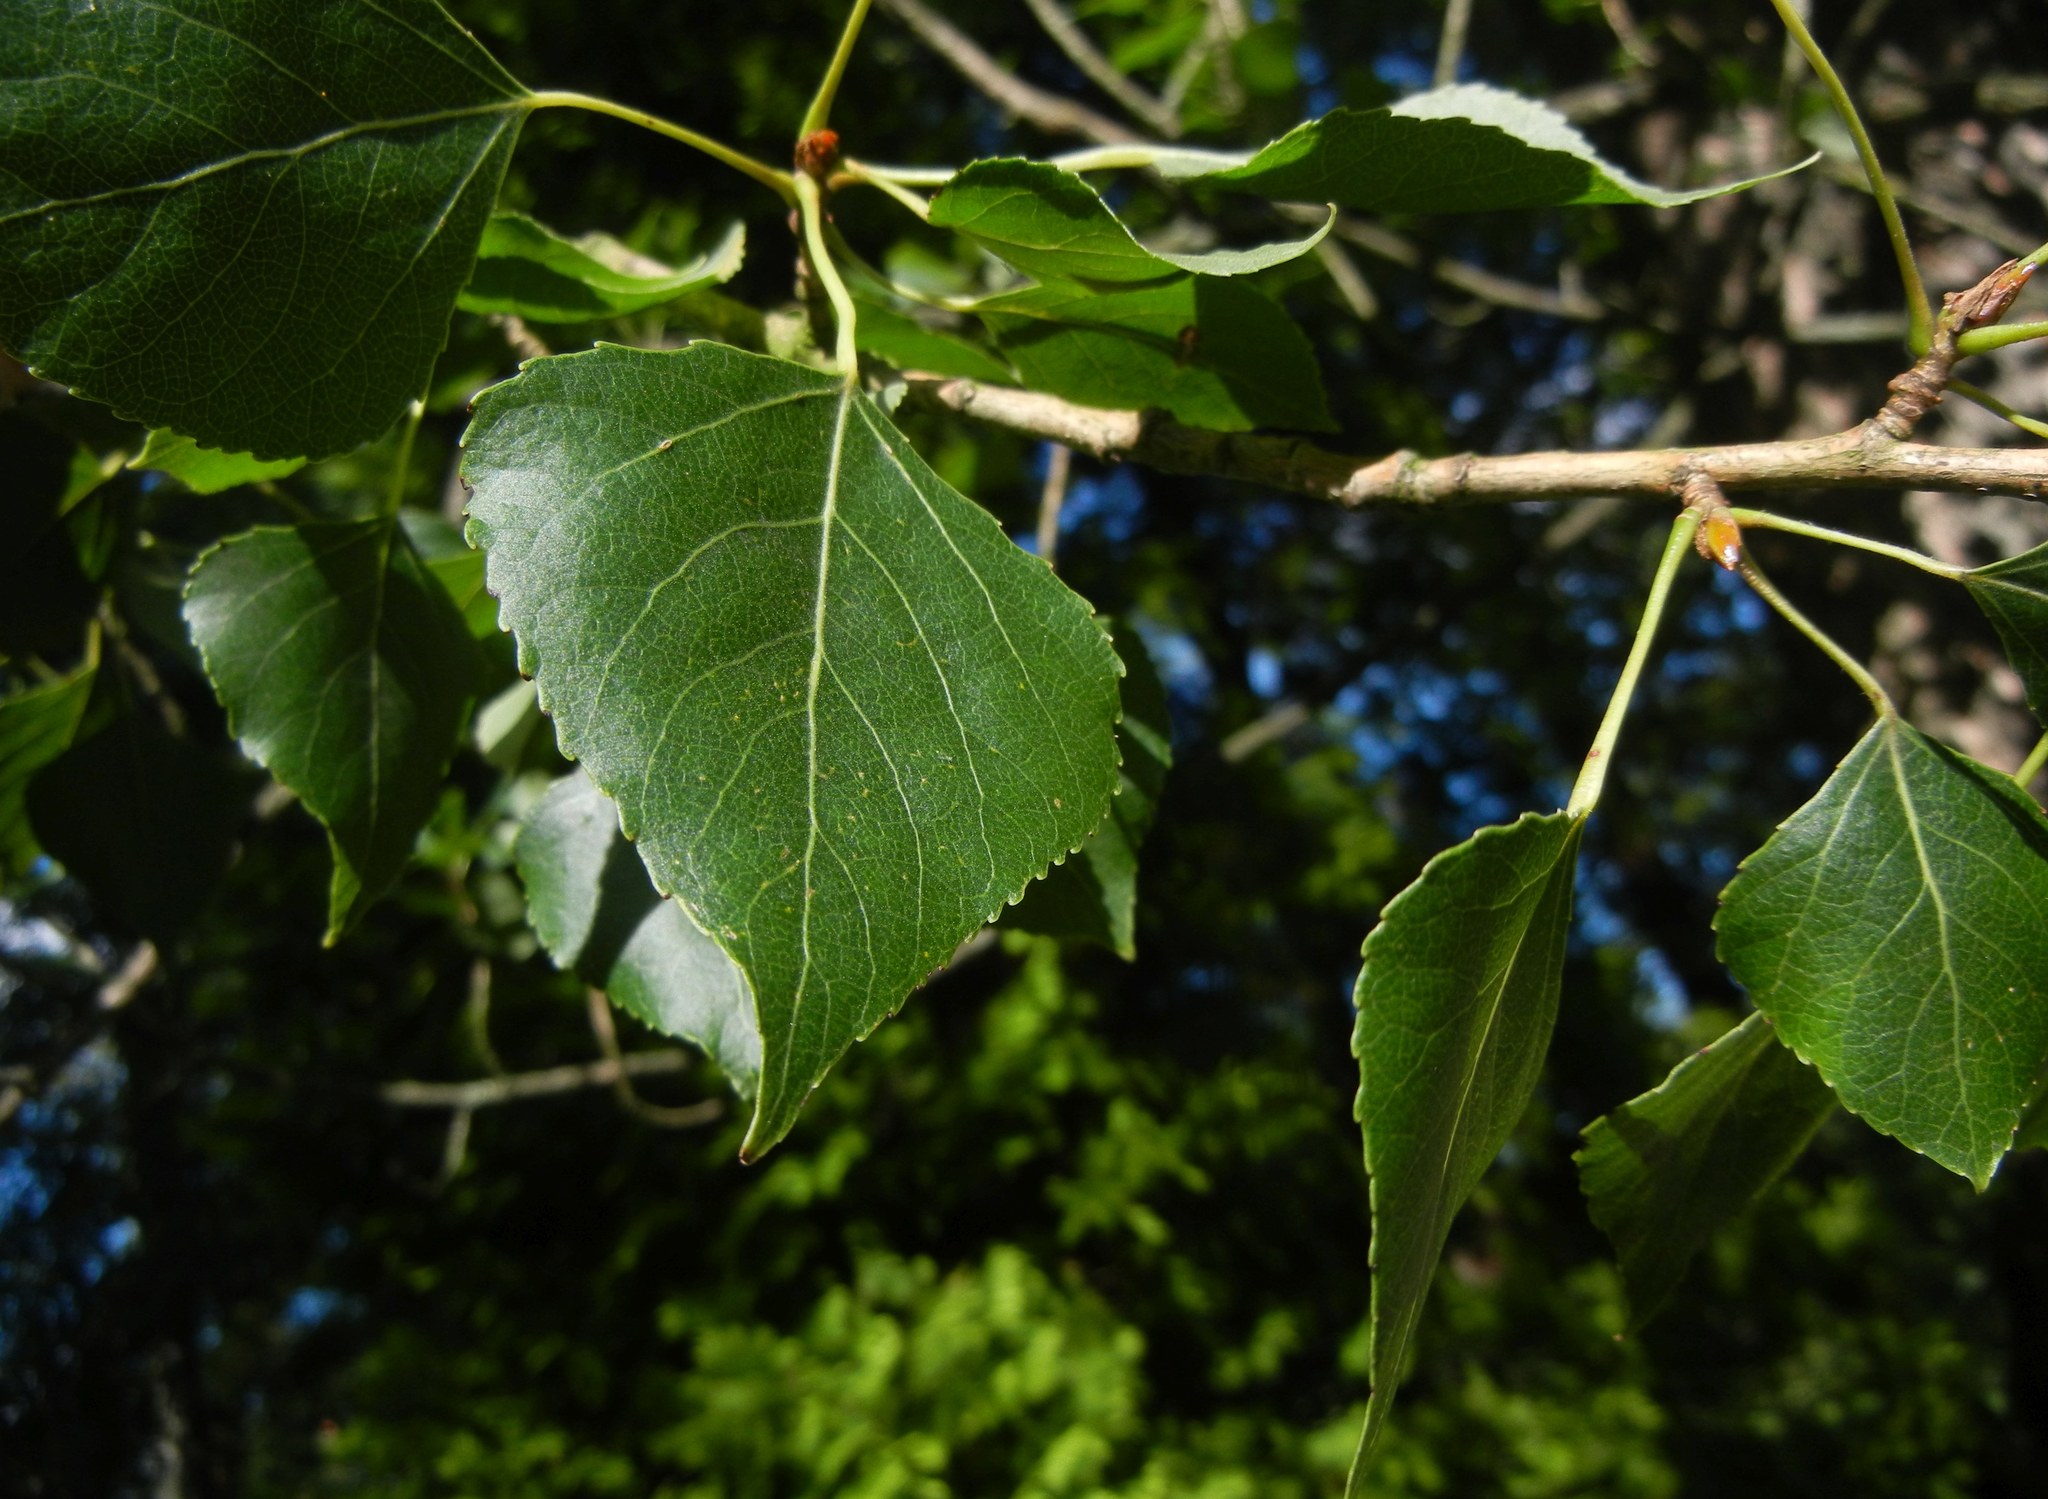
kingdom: Plantae
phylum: Tracheophyta
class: Magnoliopsida
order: Malpighiales
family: Salicaceae
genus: Populus
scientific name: Populus nigra
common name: Black poplar
